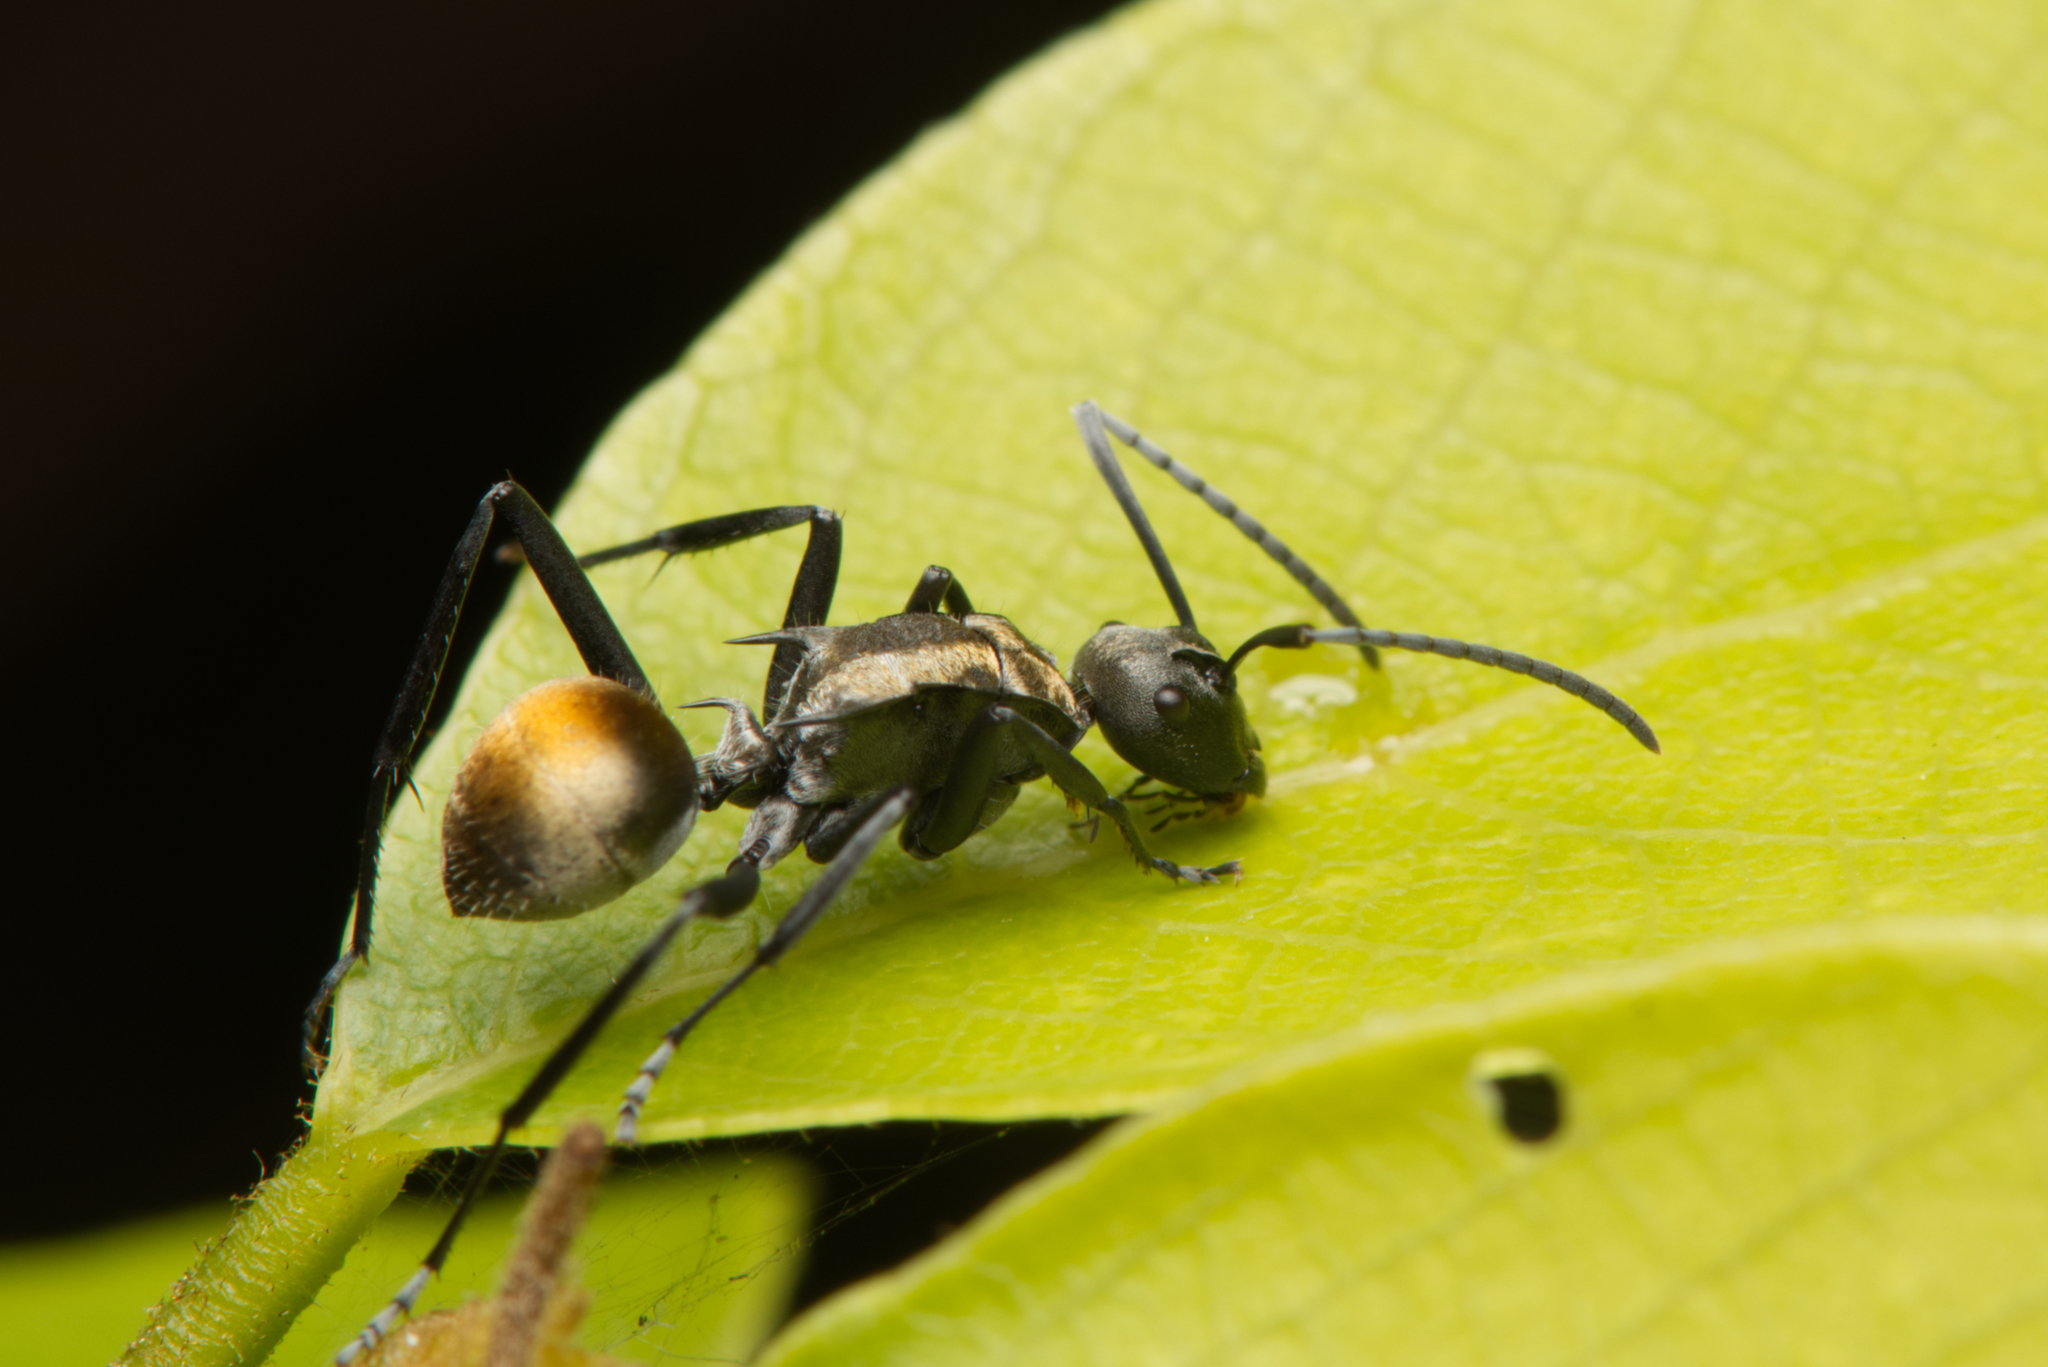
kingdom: Animalia
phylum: Arthropoda
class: Insecta
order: Hymenoptera
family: Formicidae
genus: Polyrhachis
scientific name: Polyrhachis ammon
